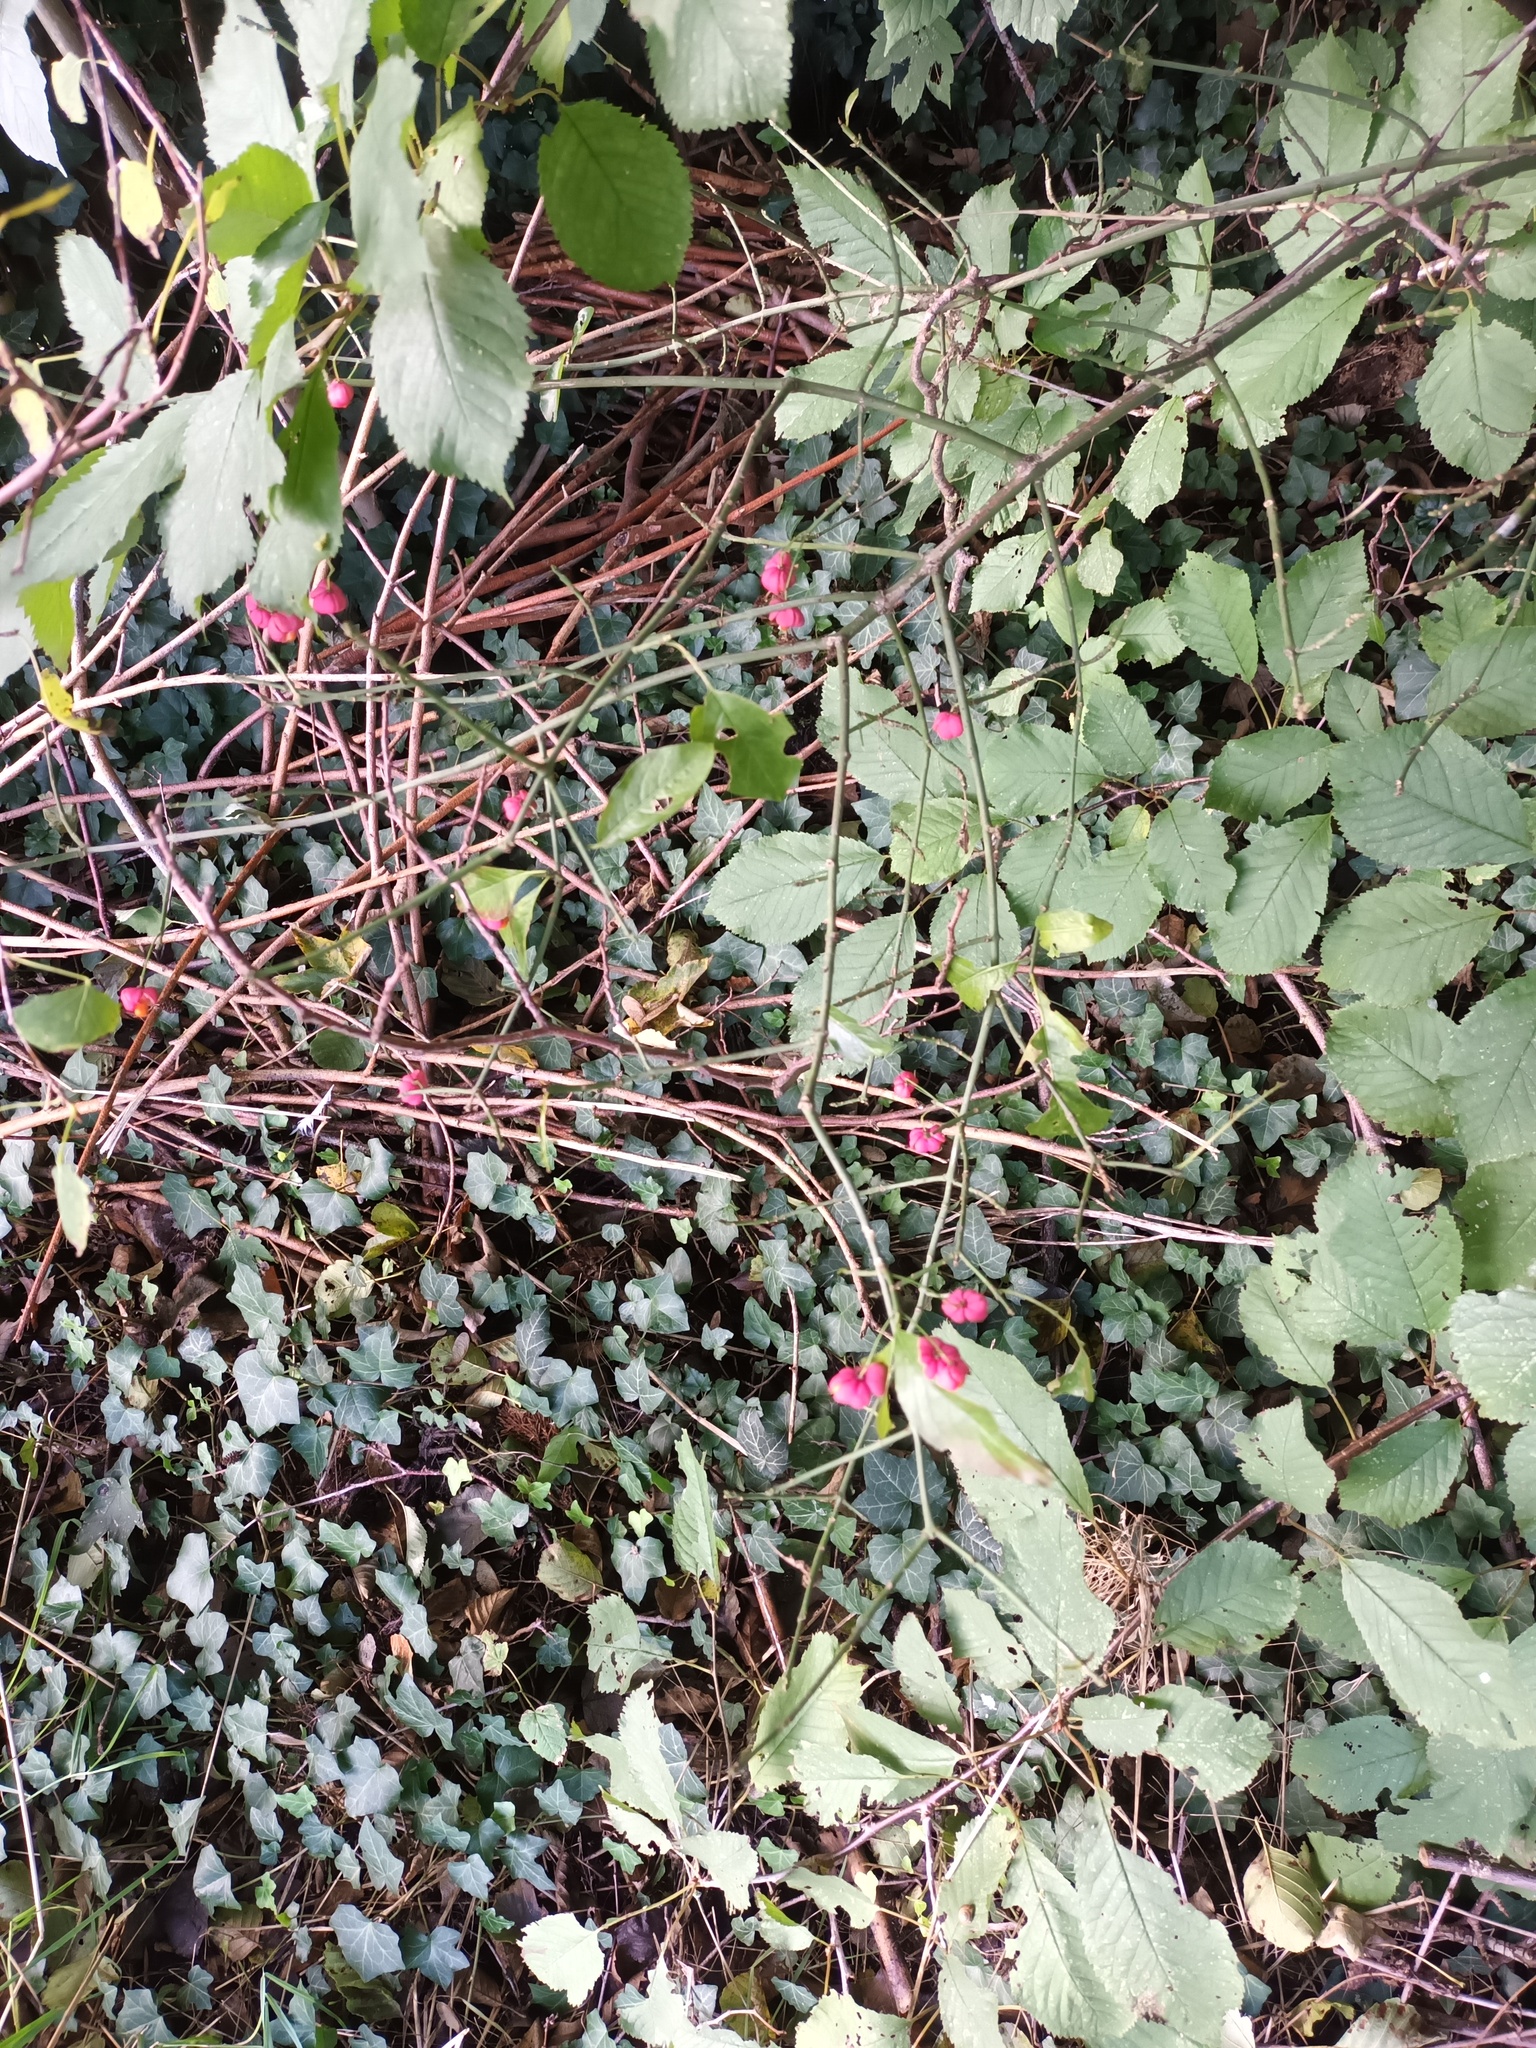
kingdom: Plantae
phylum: Tracheophyta
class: Magnoliopsida
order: Celastrales
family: Celastraceae
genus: Euonymus
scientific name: Euonymus europaeus
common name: Spindle
